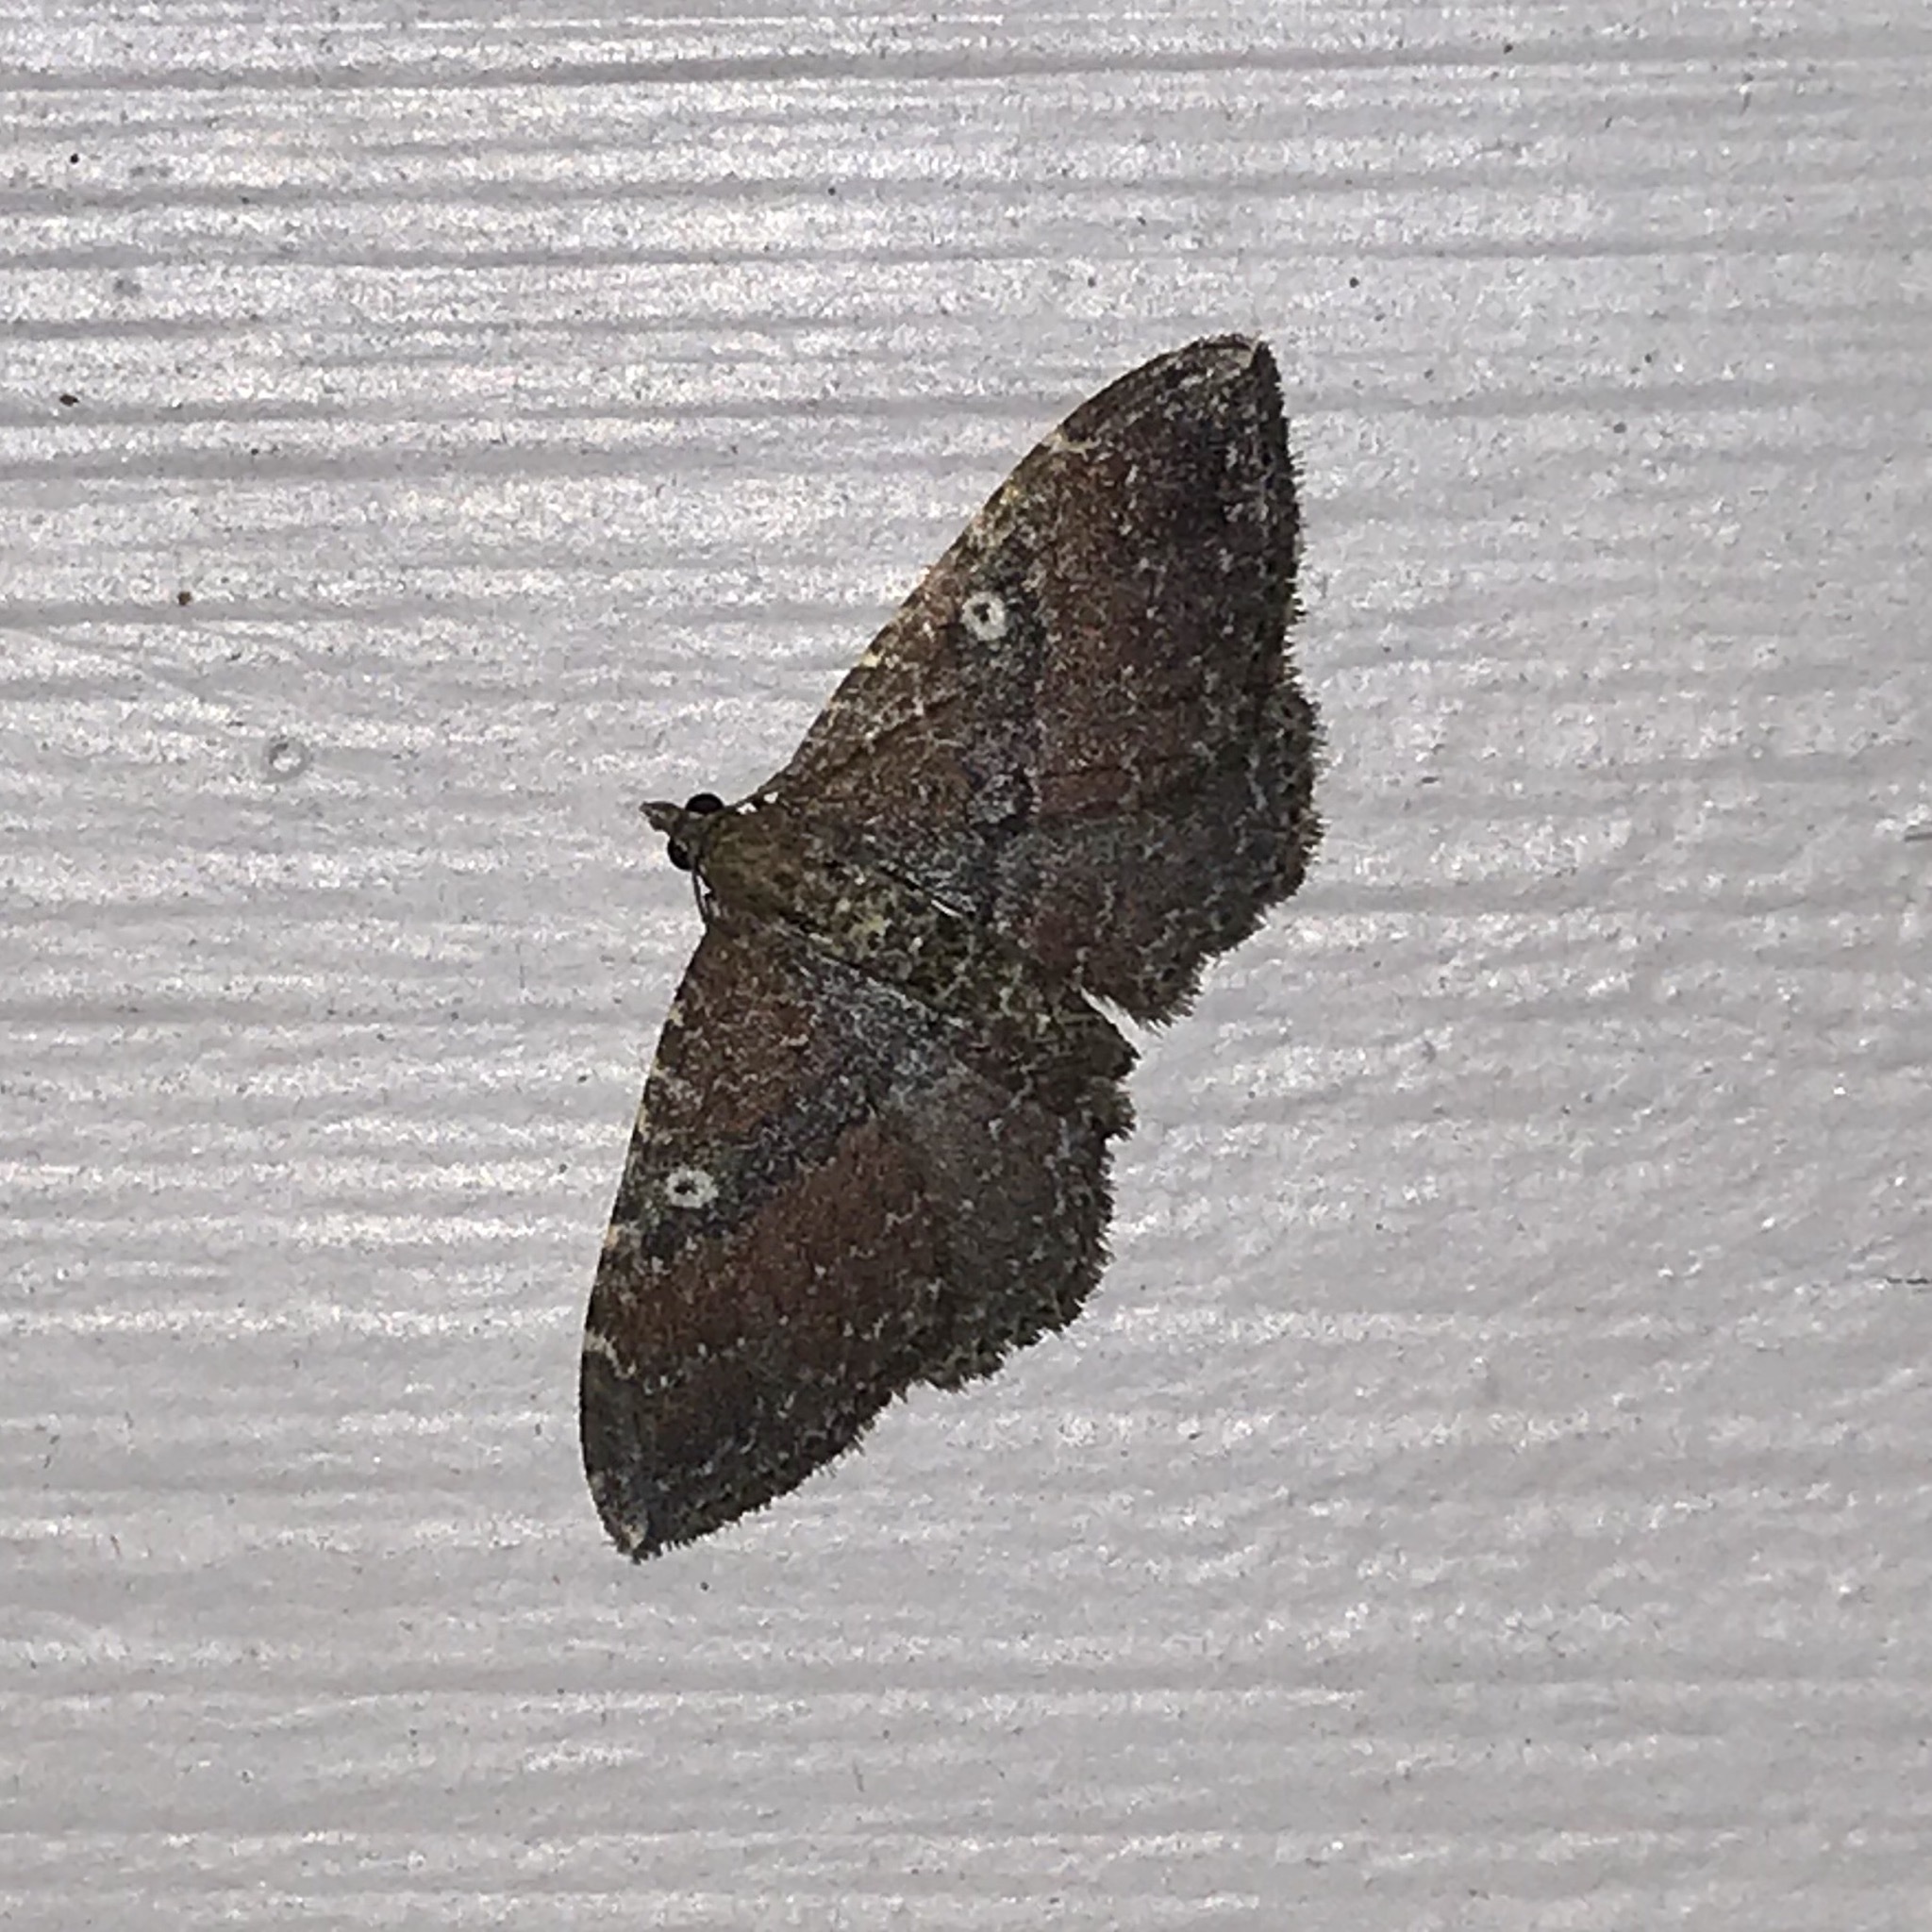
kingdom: Animalia
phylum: Arthropoda
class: Insecta
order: Lepidoptera
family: Geometridae
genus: Orthonama
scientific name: Orthonama obstipata
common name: The gem
